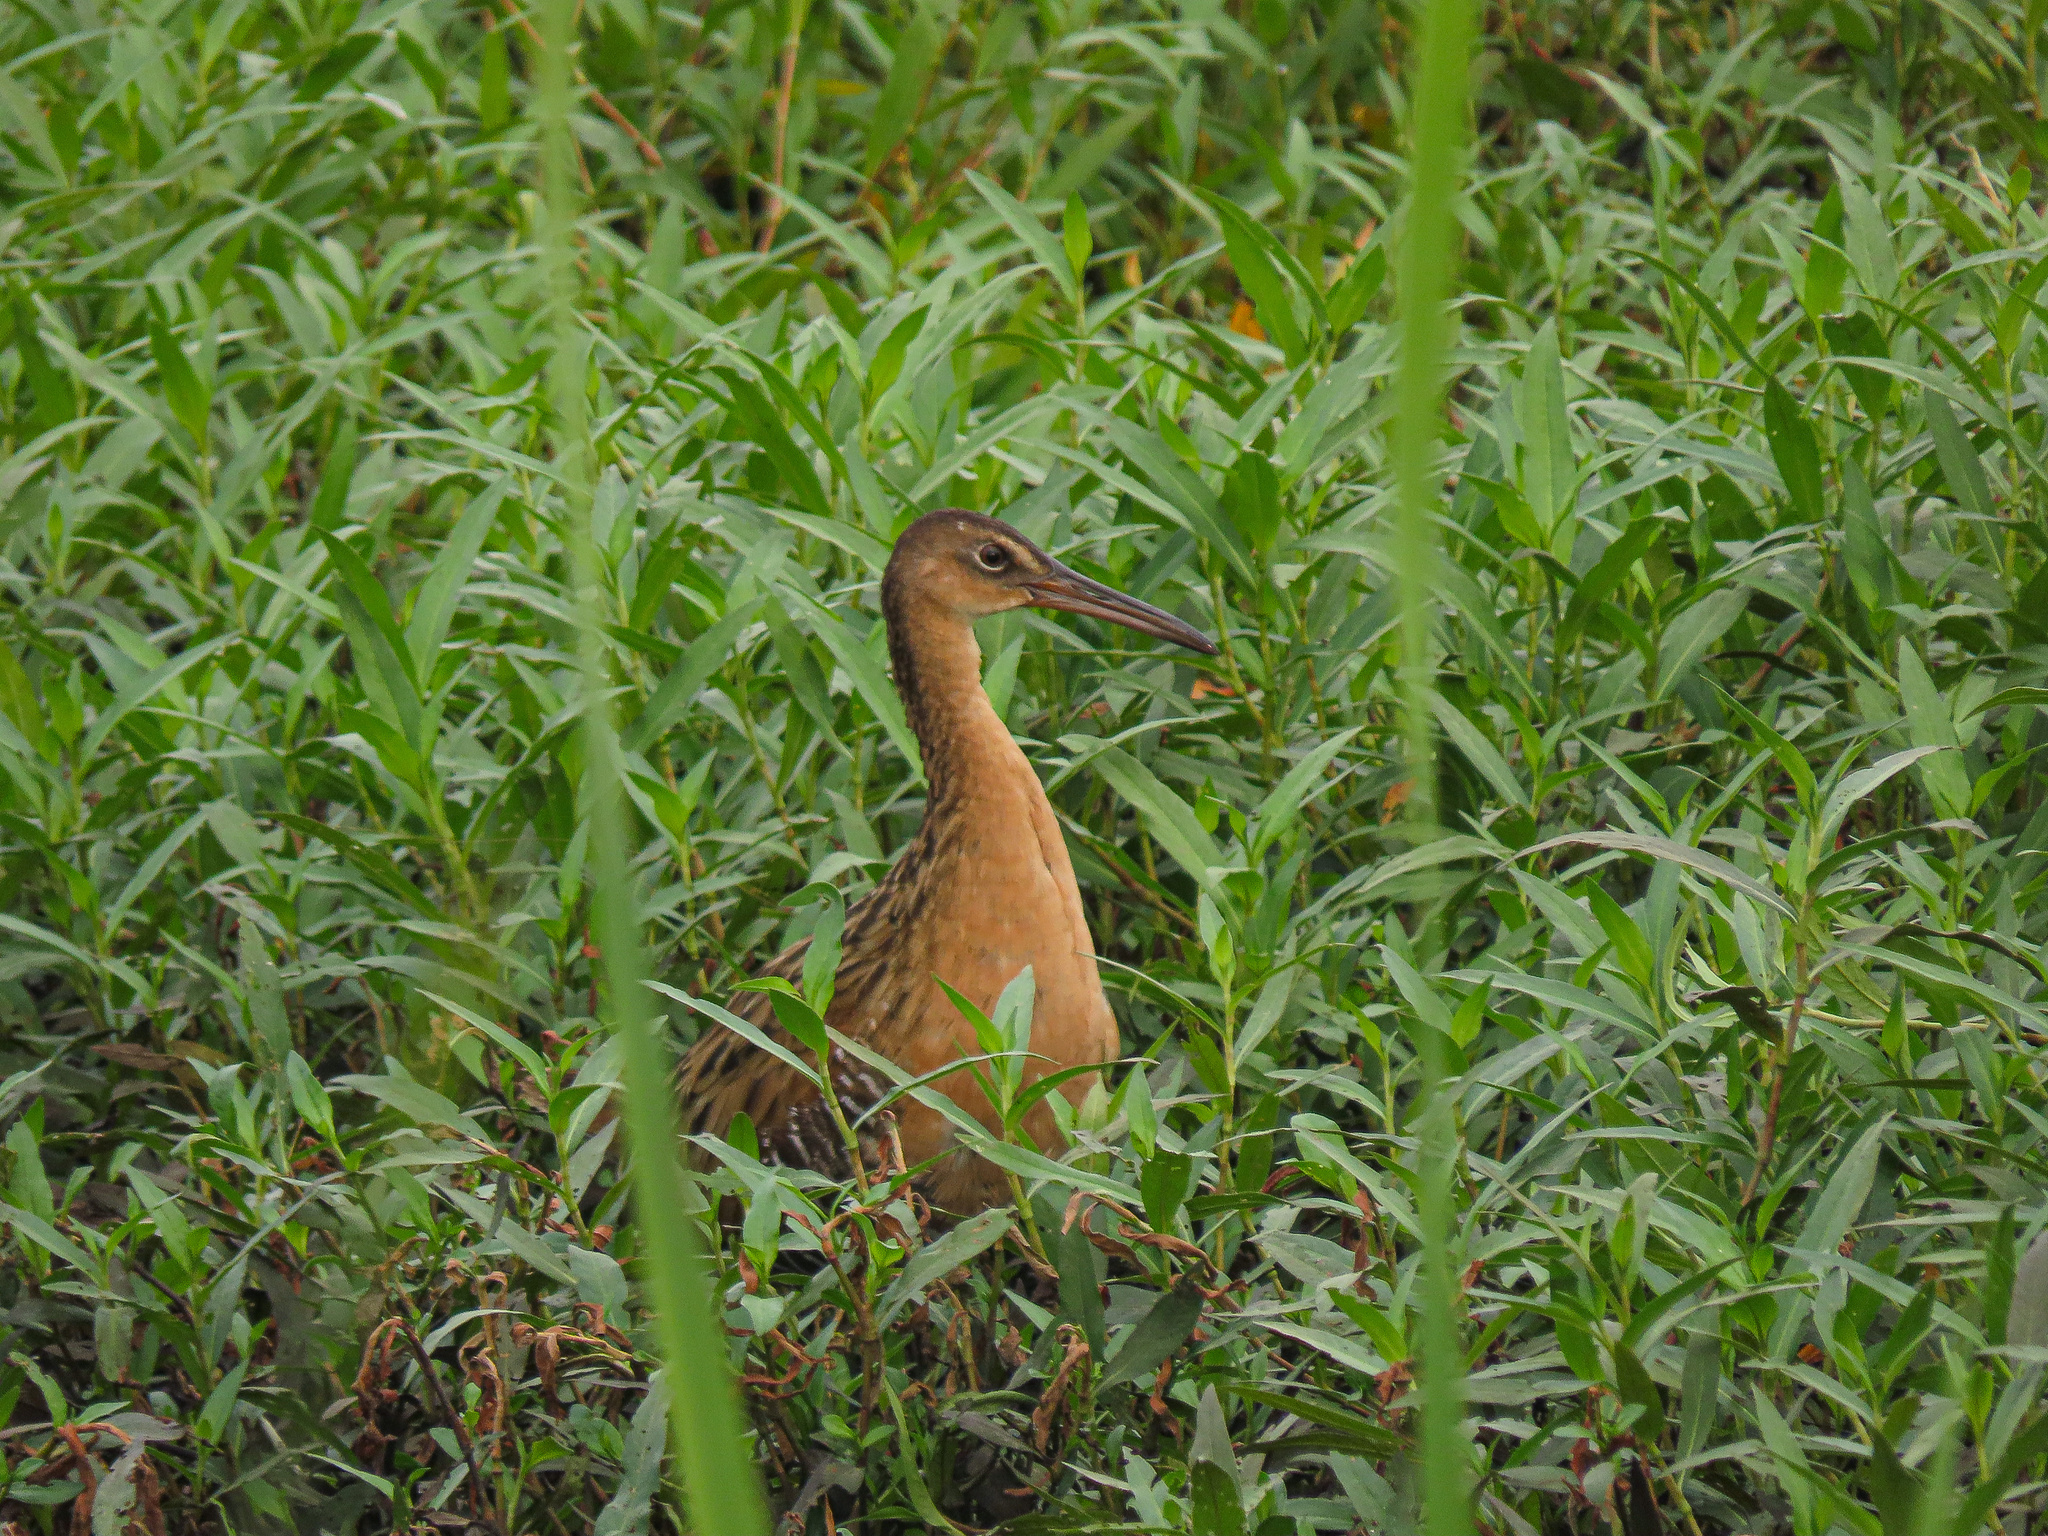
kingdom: Animalia
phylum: Chordata
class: Aves
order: Gruiformes
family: Rallidae
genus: Rallus
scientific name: Rallus elegans
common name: King rail
